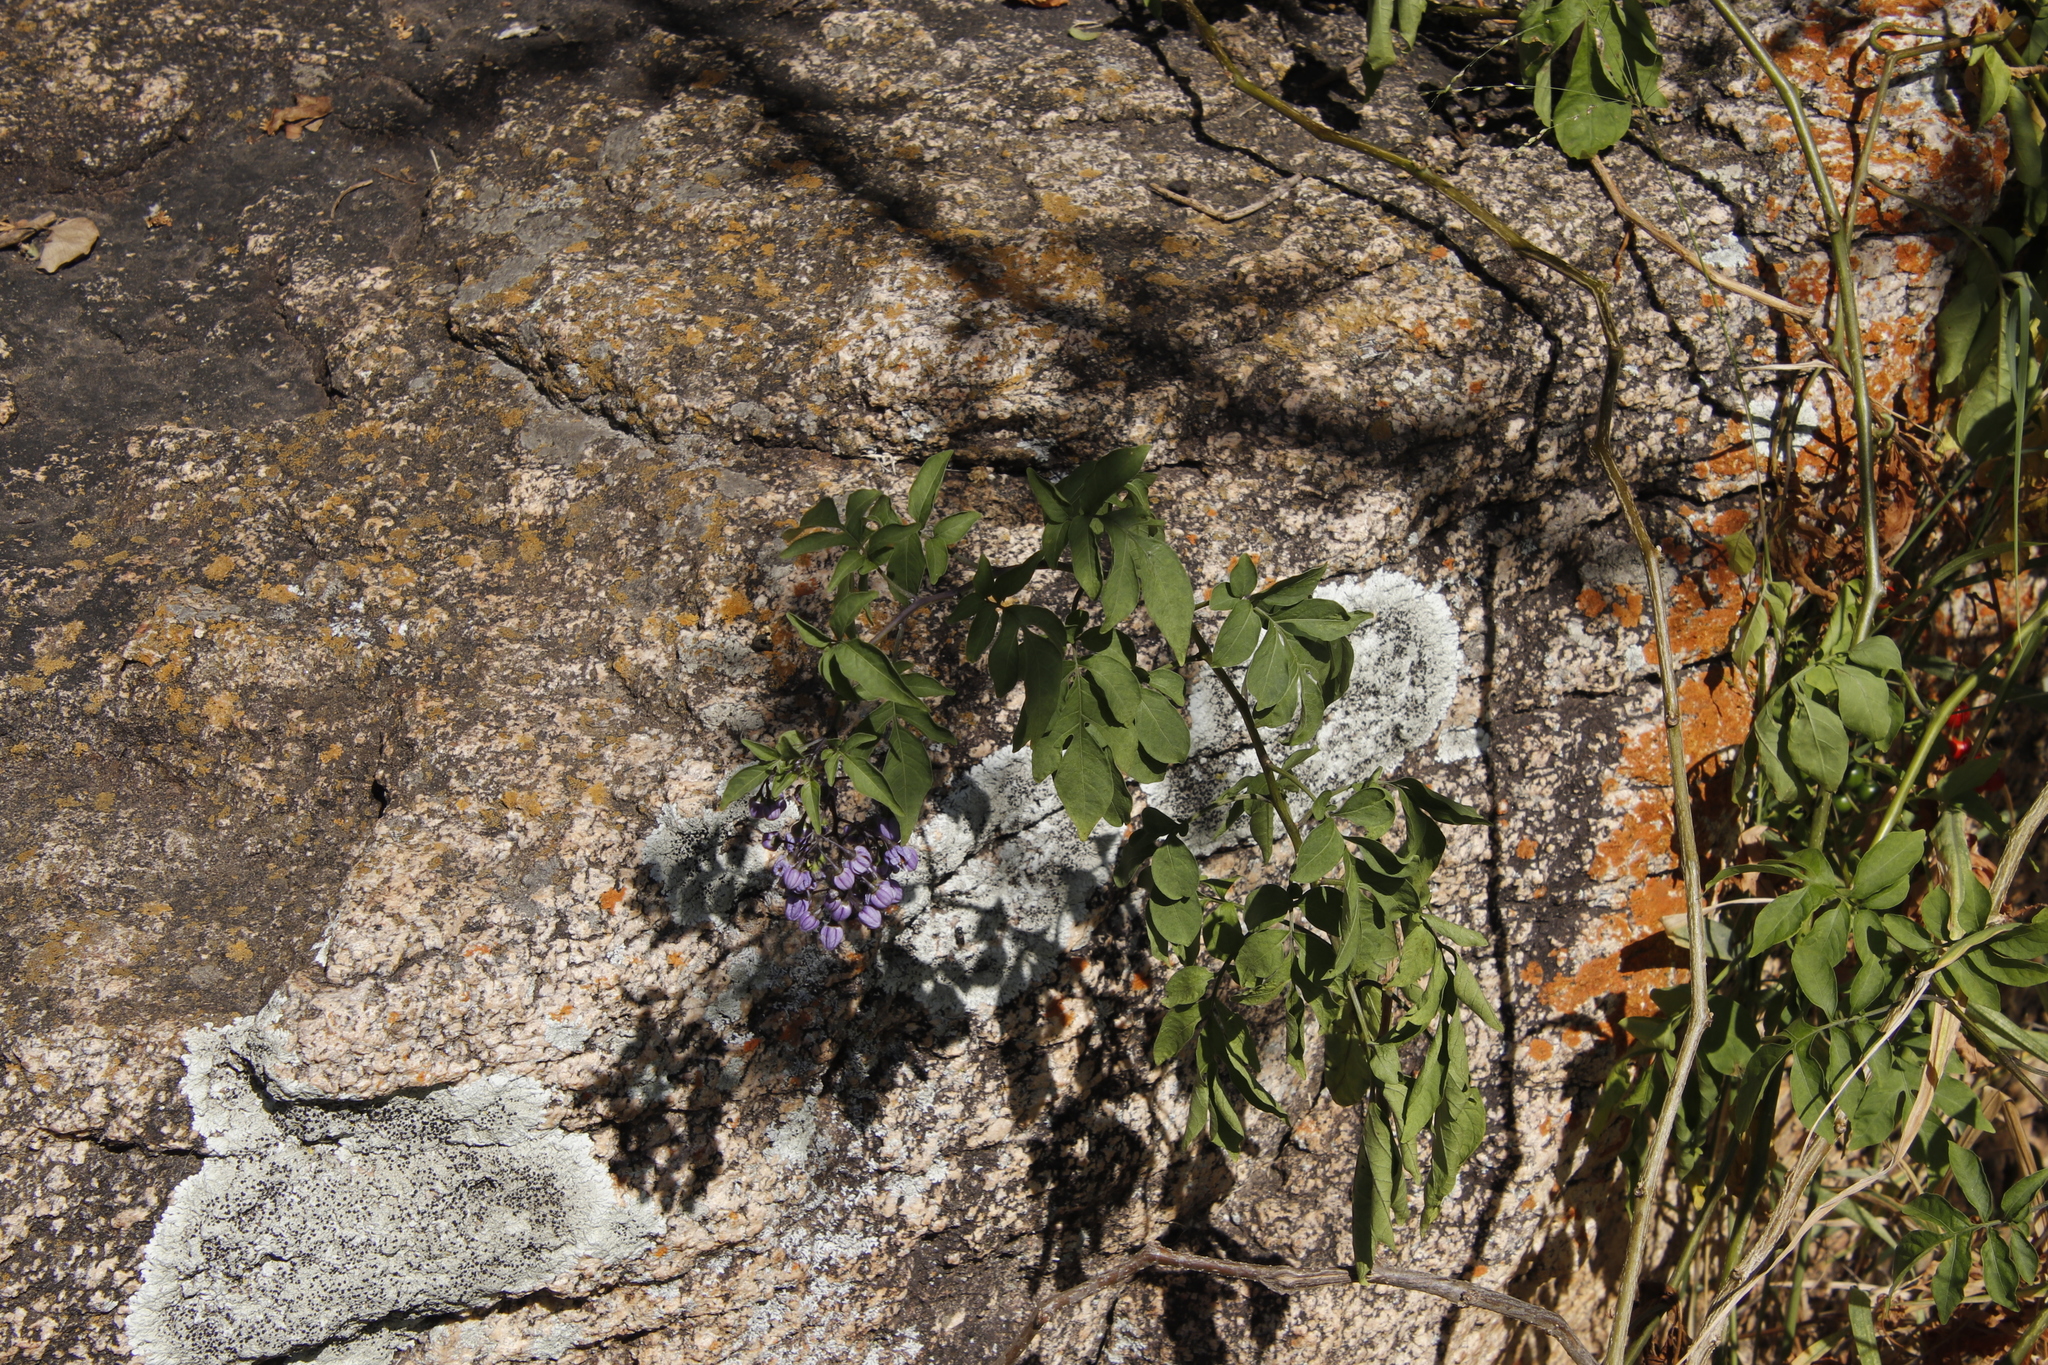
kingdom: Plantae
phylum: Tracheophyta
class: Magnoliopsida
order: Solanales
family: Solanaceae
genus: Solanum
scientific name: Solanum seaforthianum
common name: Brazilian nightshade
